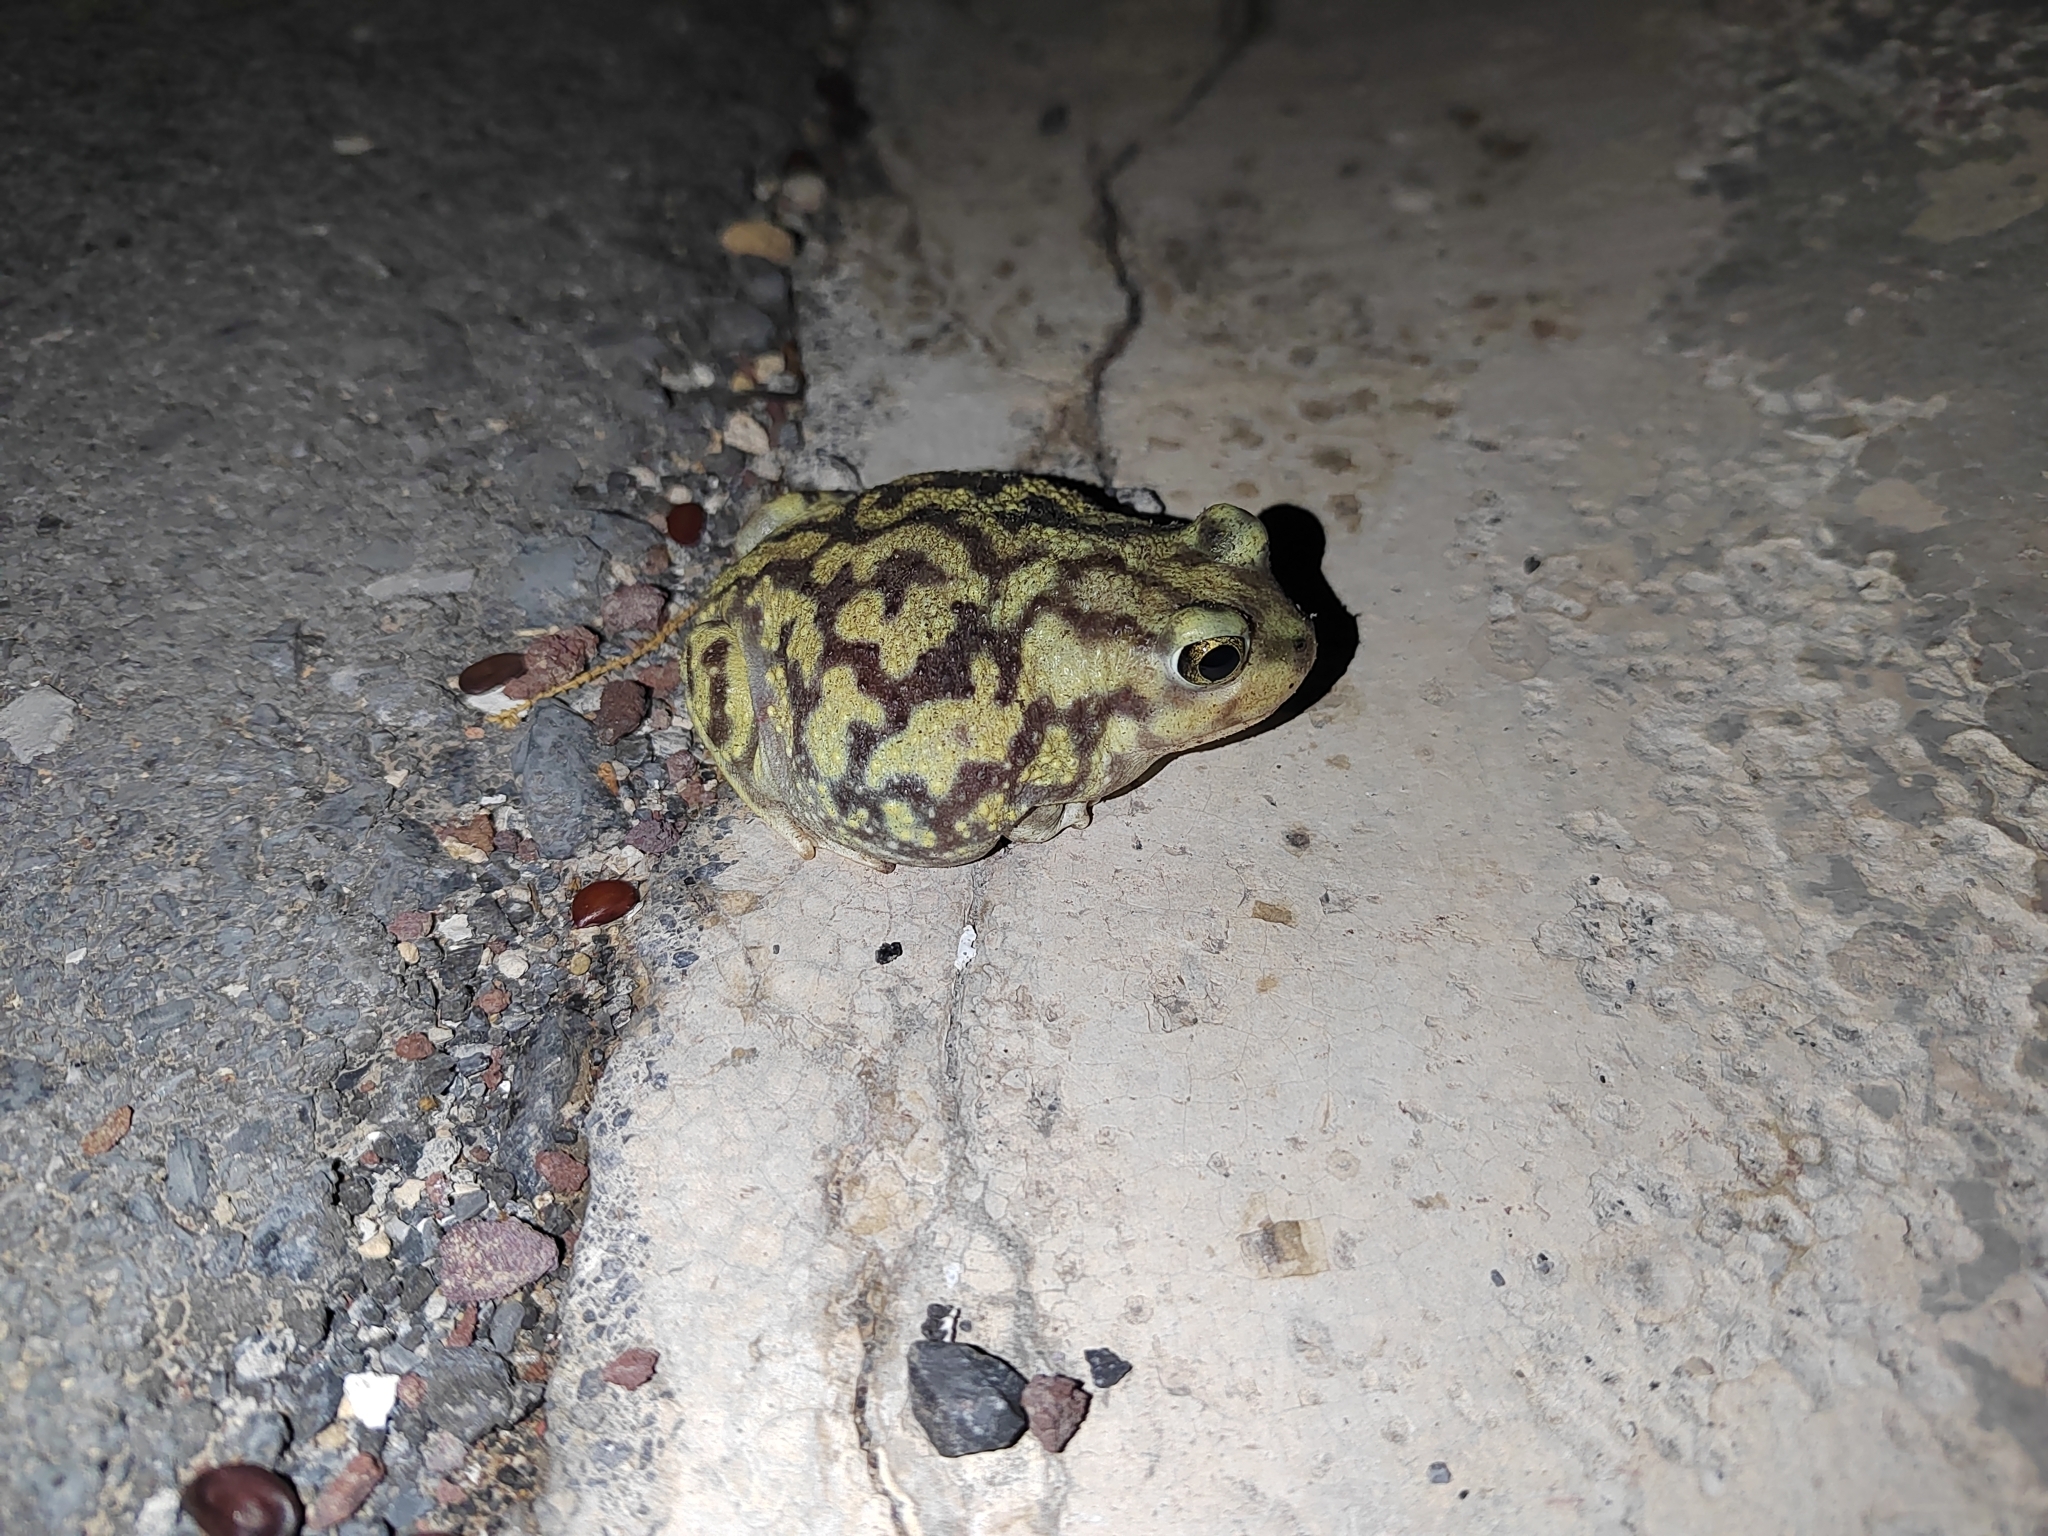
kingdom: Animalia
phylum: Chordata
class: Amphibia
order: Anura
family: Scaphiopodidae
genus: Scaphiopus
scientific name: Scaphiopus couchii
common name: Couch's spadefoot toad
